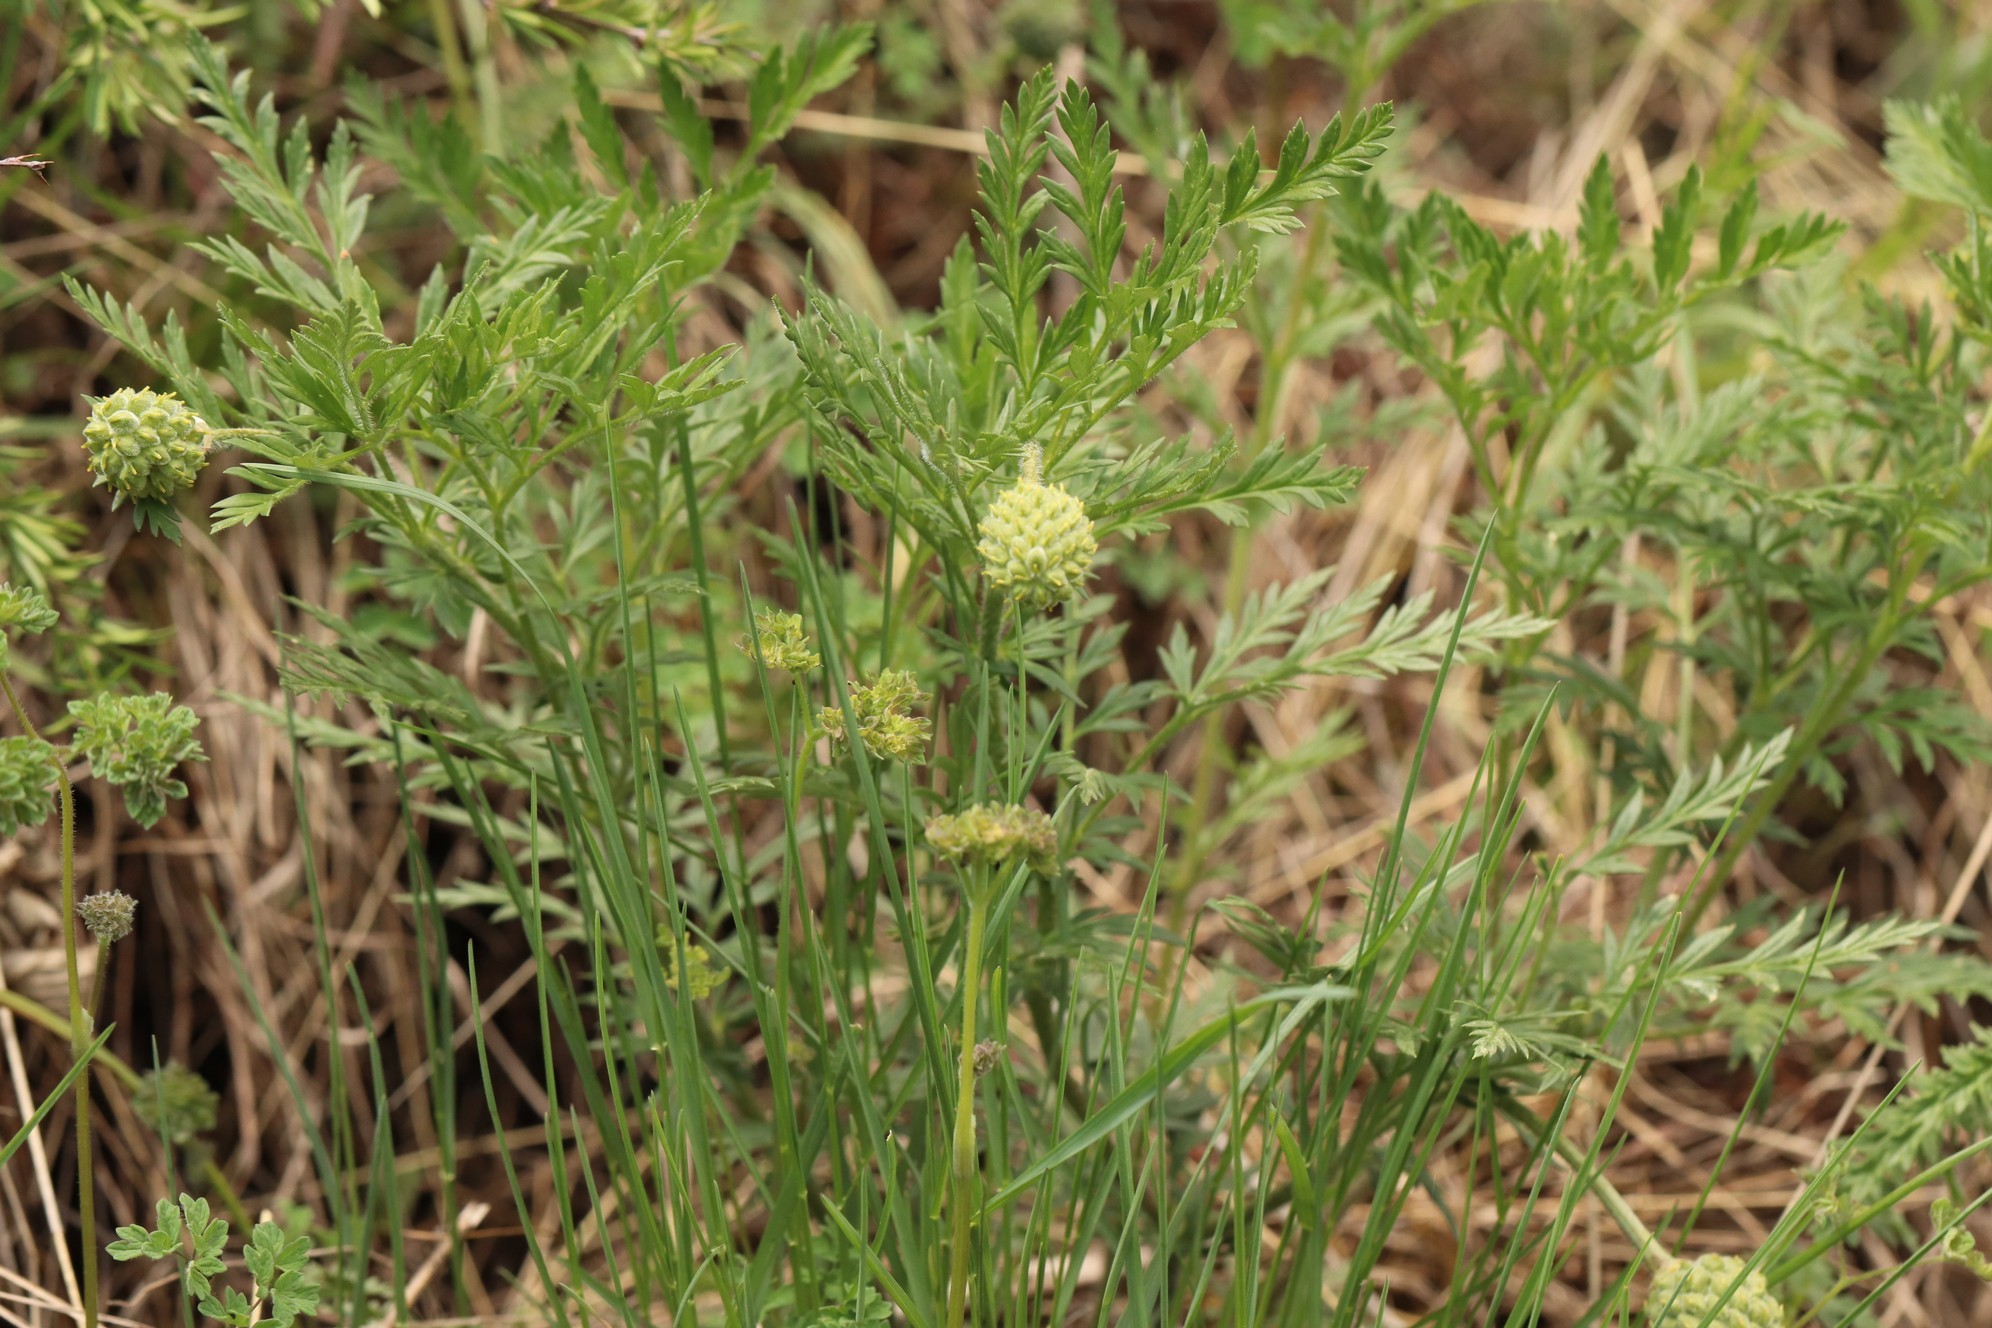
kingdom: Plantae
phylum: Tracheophyta
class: Magnoliopsida
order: Ranunculales
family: Ranunculaceae
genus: Adonis
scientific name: Adonis villosa
